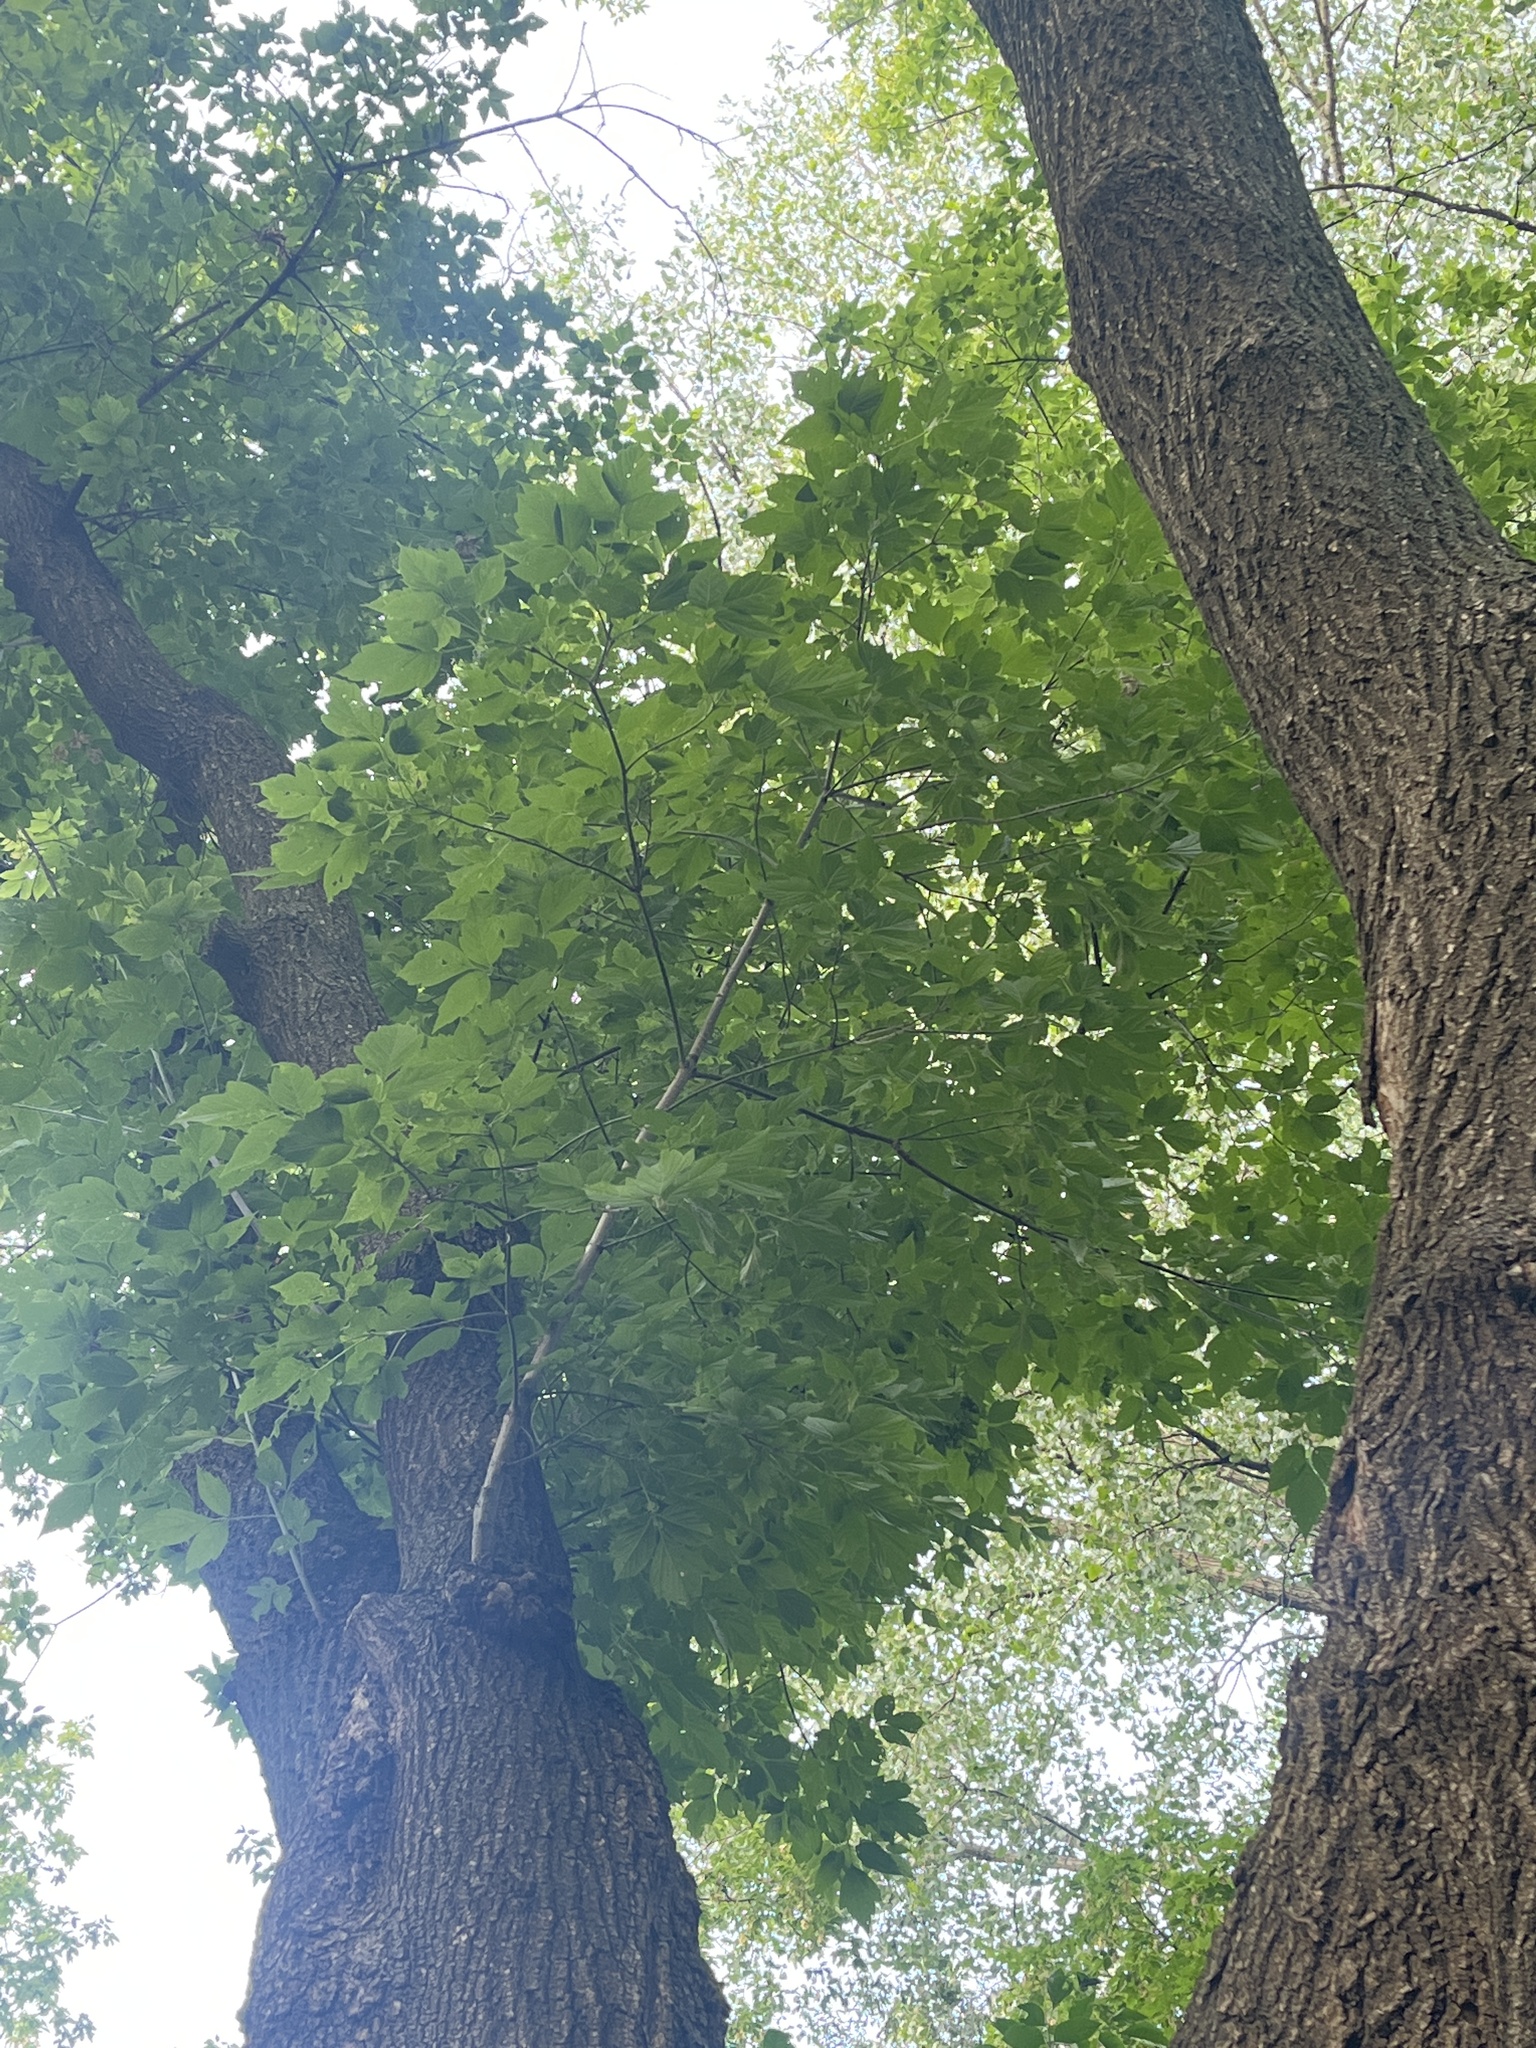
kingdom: Plantae
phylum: Tracheophyta
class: Magnoliopsida
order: Sapindales
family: Sapindaceae
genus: Acer
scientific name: Acer negundo
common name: Ashleaf maple
